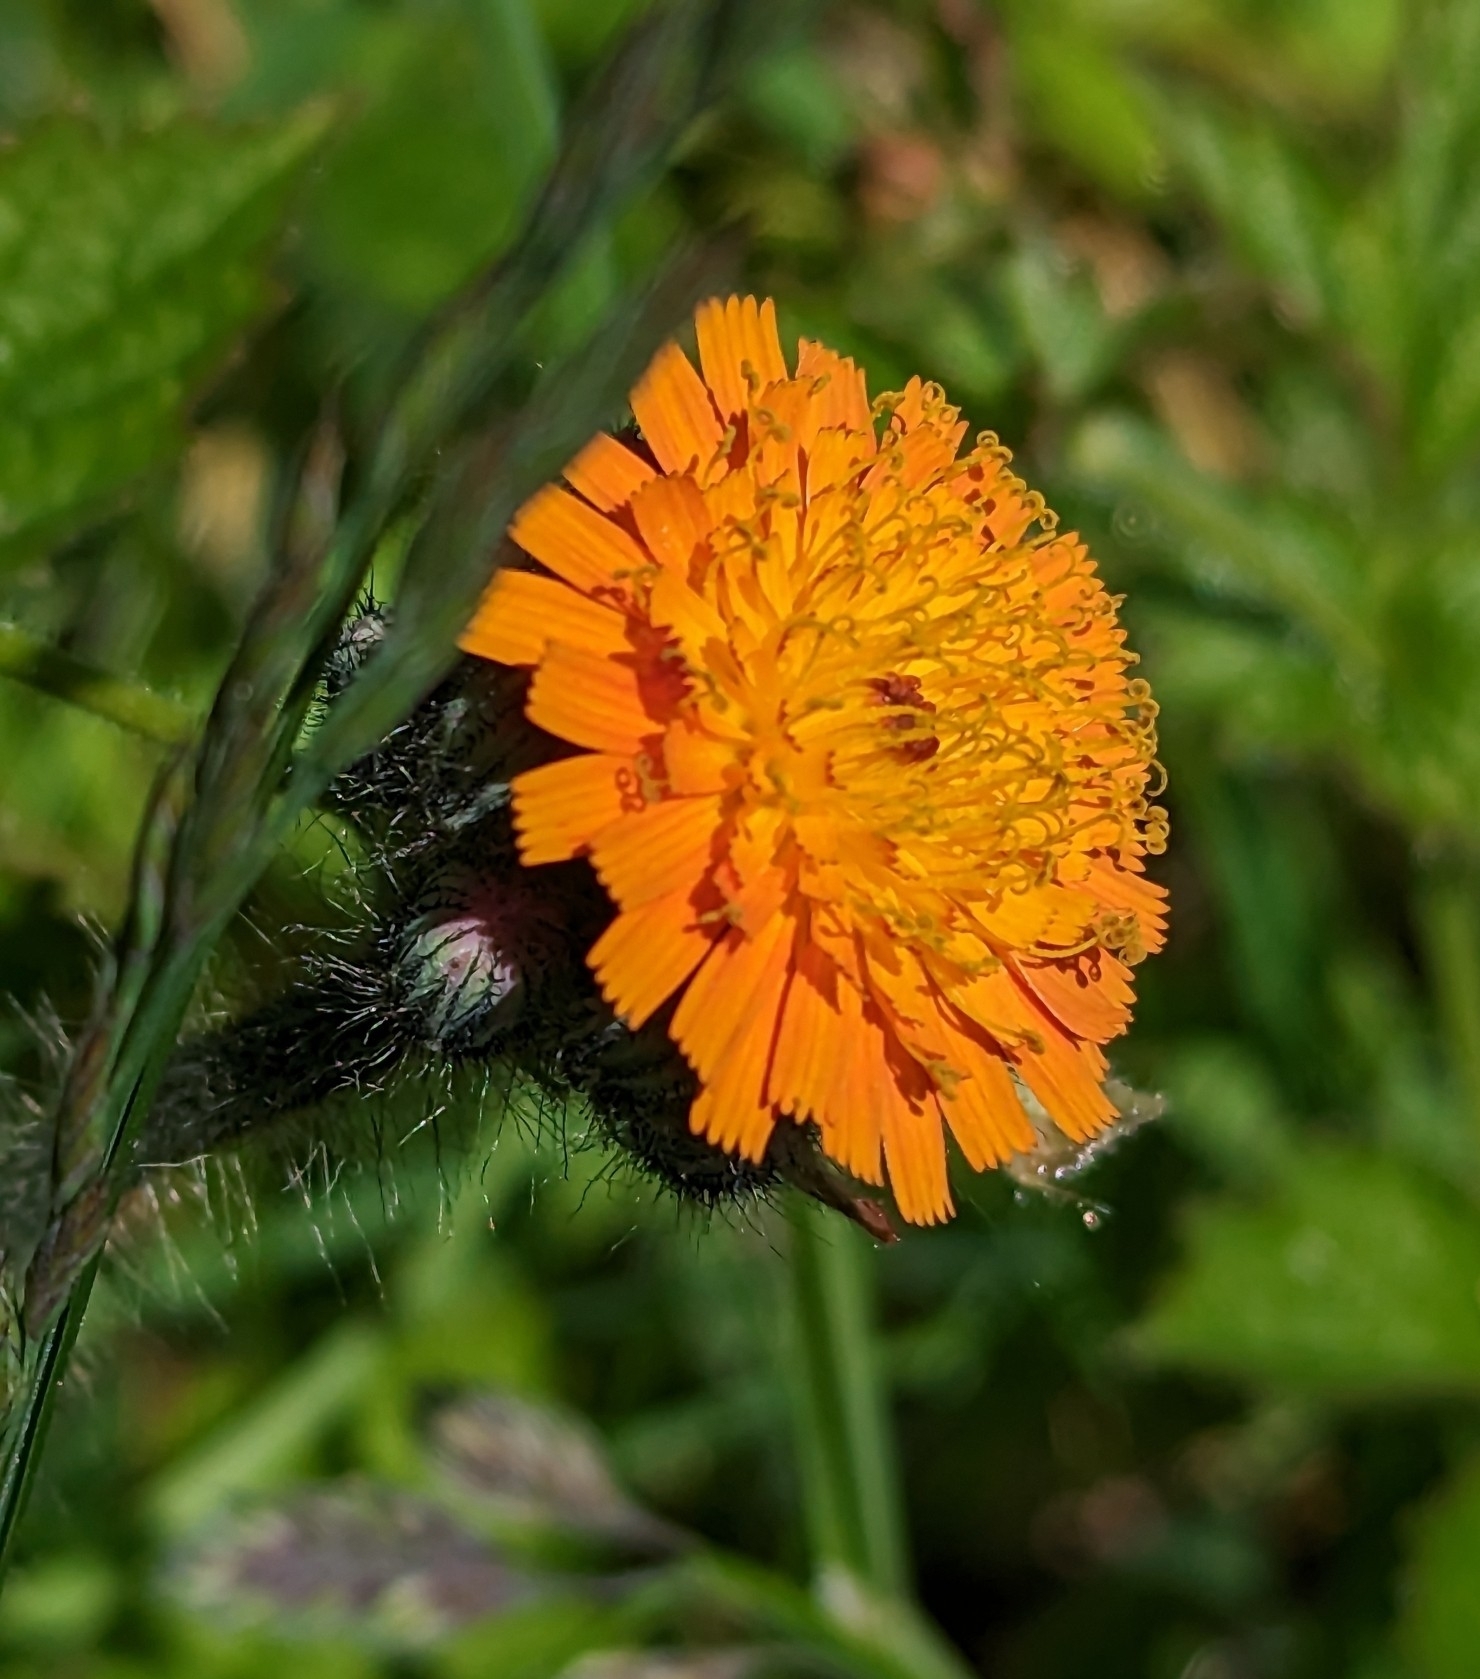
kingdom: Plantae
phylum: Tracheophyta
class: Magnoliopsida
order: Asterales
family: Asteraceae
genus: Pilosella
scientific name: Pilosella aurantiaca
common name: Fox-and-cubs
